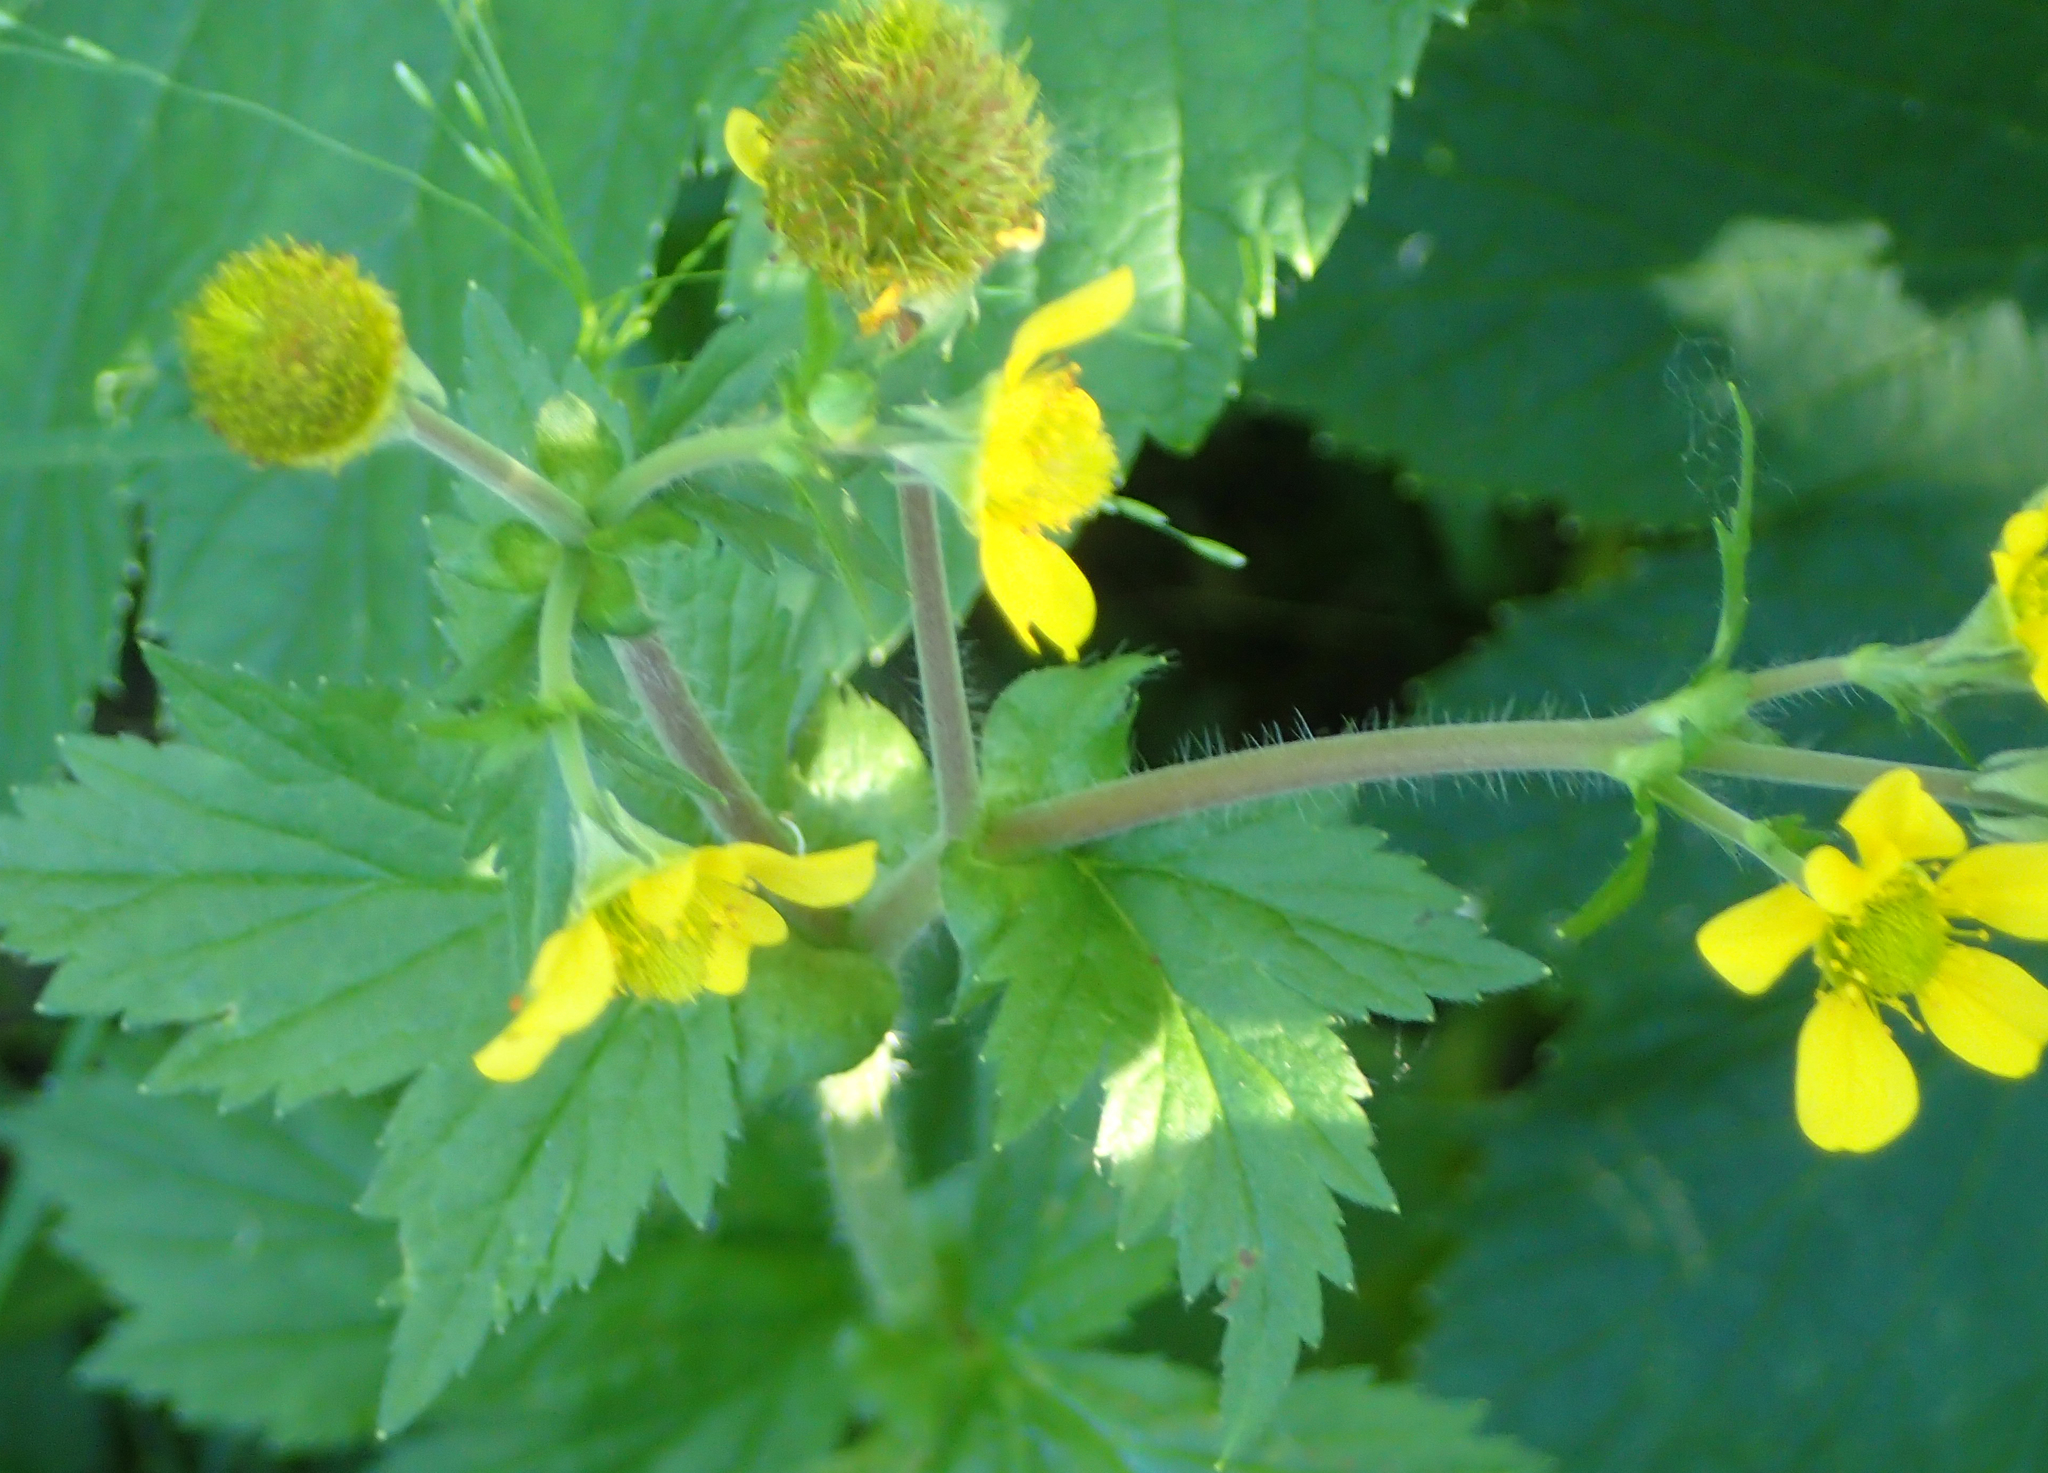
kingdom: Plantae
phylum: Tracheophyta
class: Magnoliopsida
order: Rosales
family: Rosaceae
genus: Geum
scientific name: Geum macrophyllum
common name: Large-leaved avens
